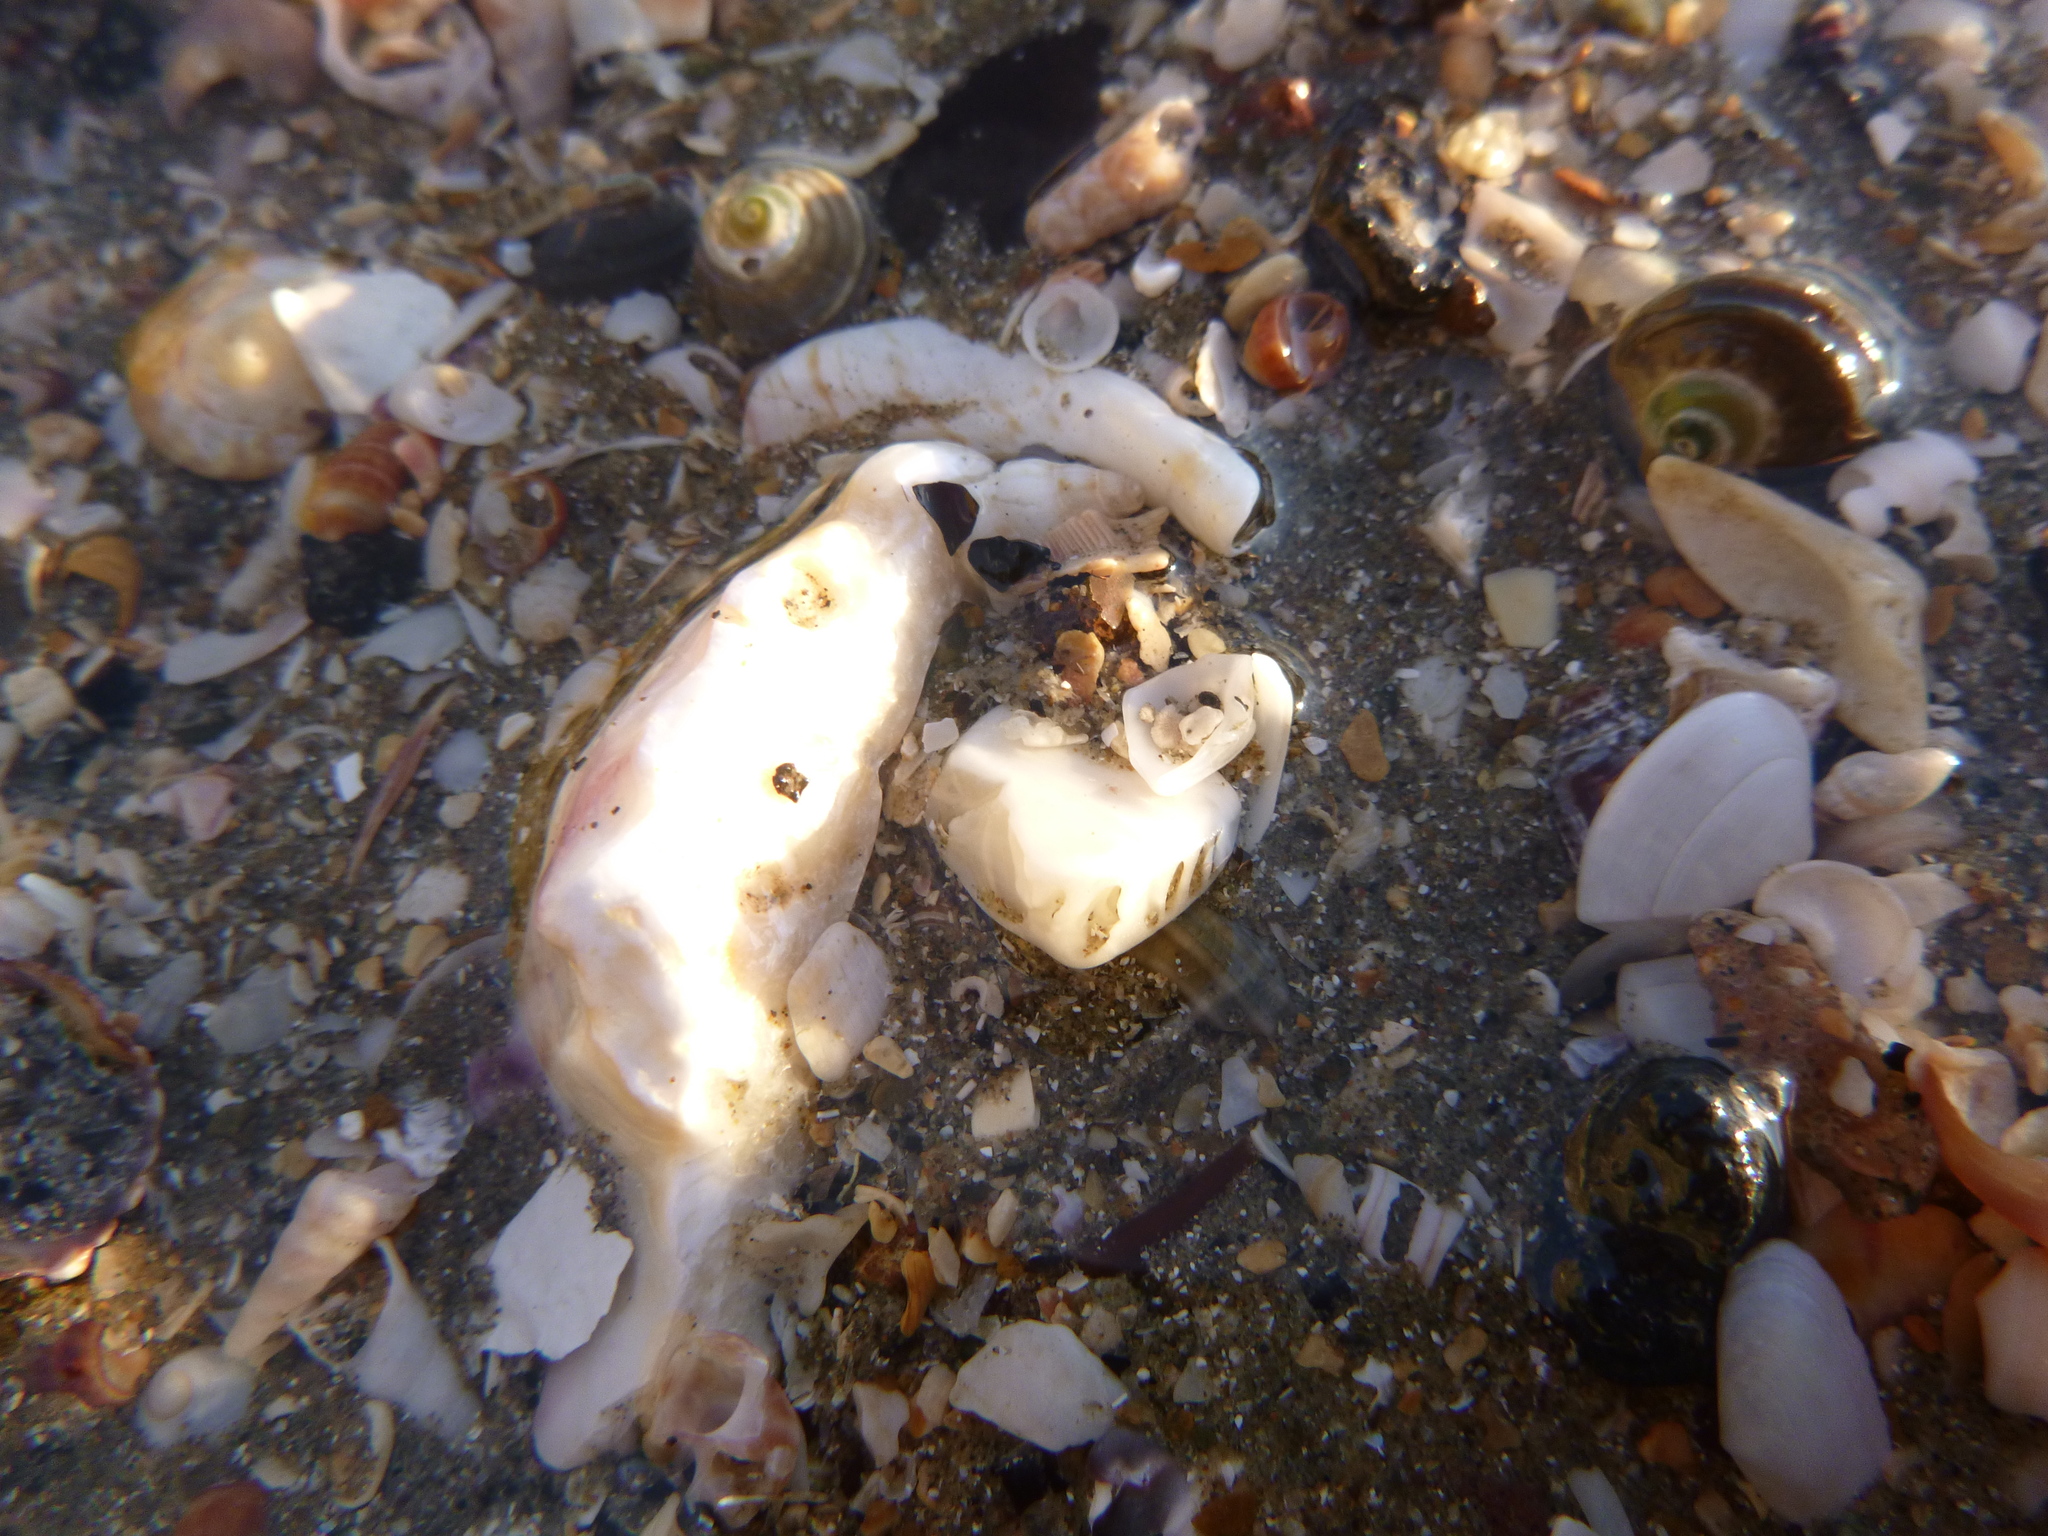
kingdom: Animalia
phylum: Echinodermata
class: Echinoidea
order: Clypeasteroida
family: Clypeasteridae
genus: Fellaster
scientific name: Fellaster zelandiae
